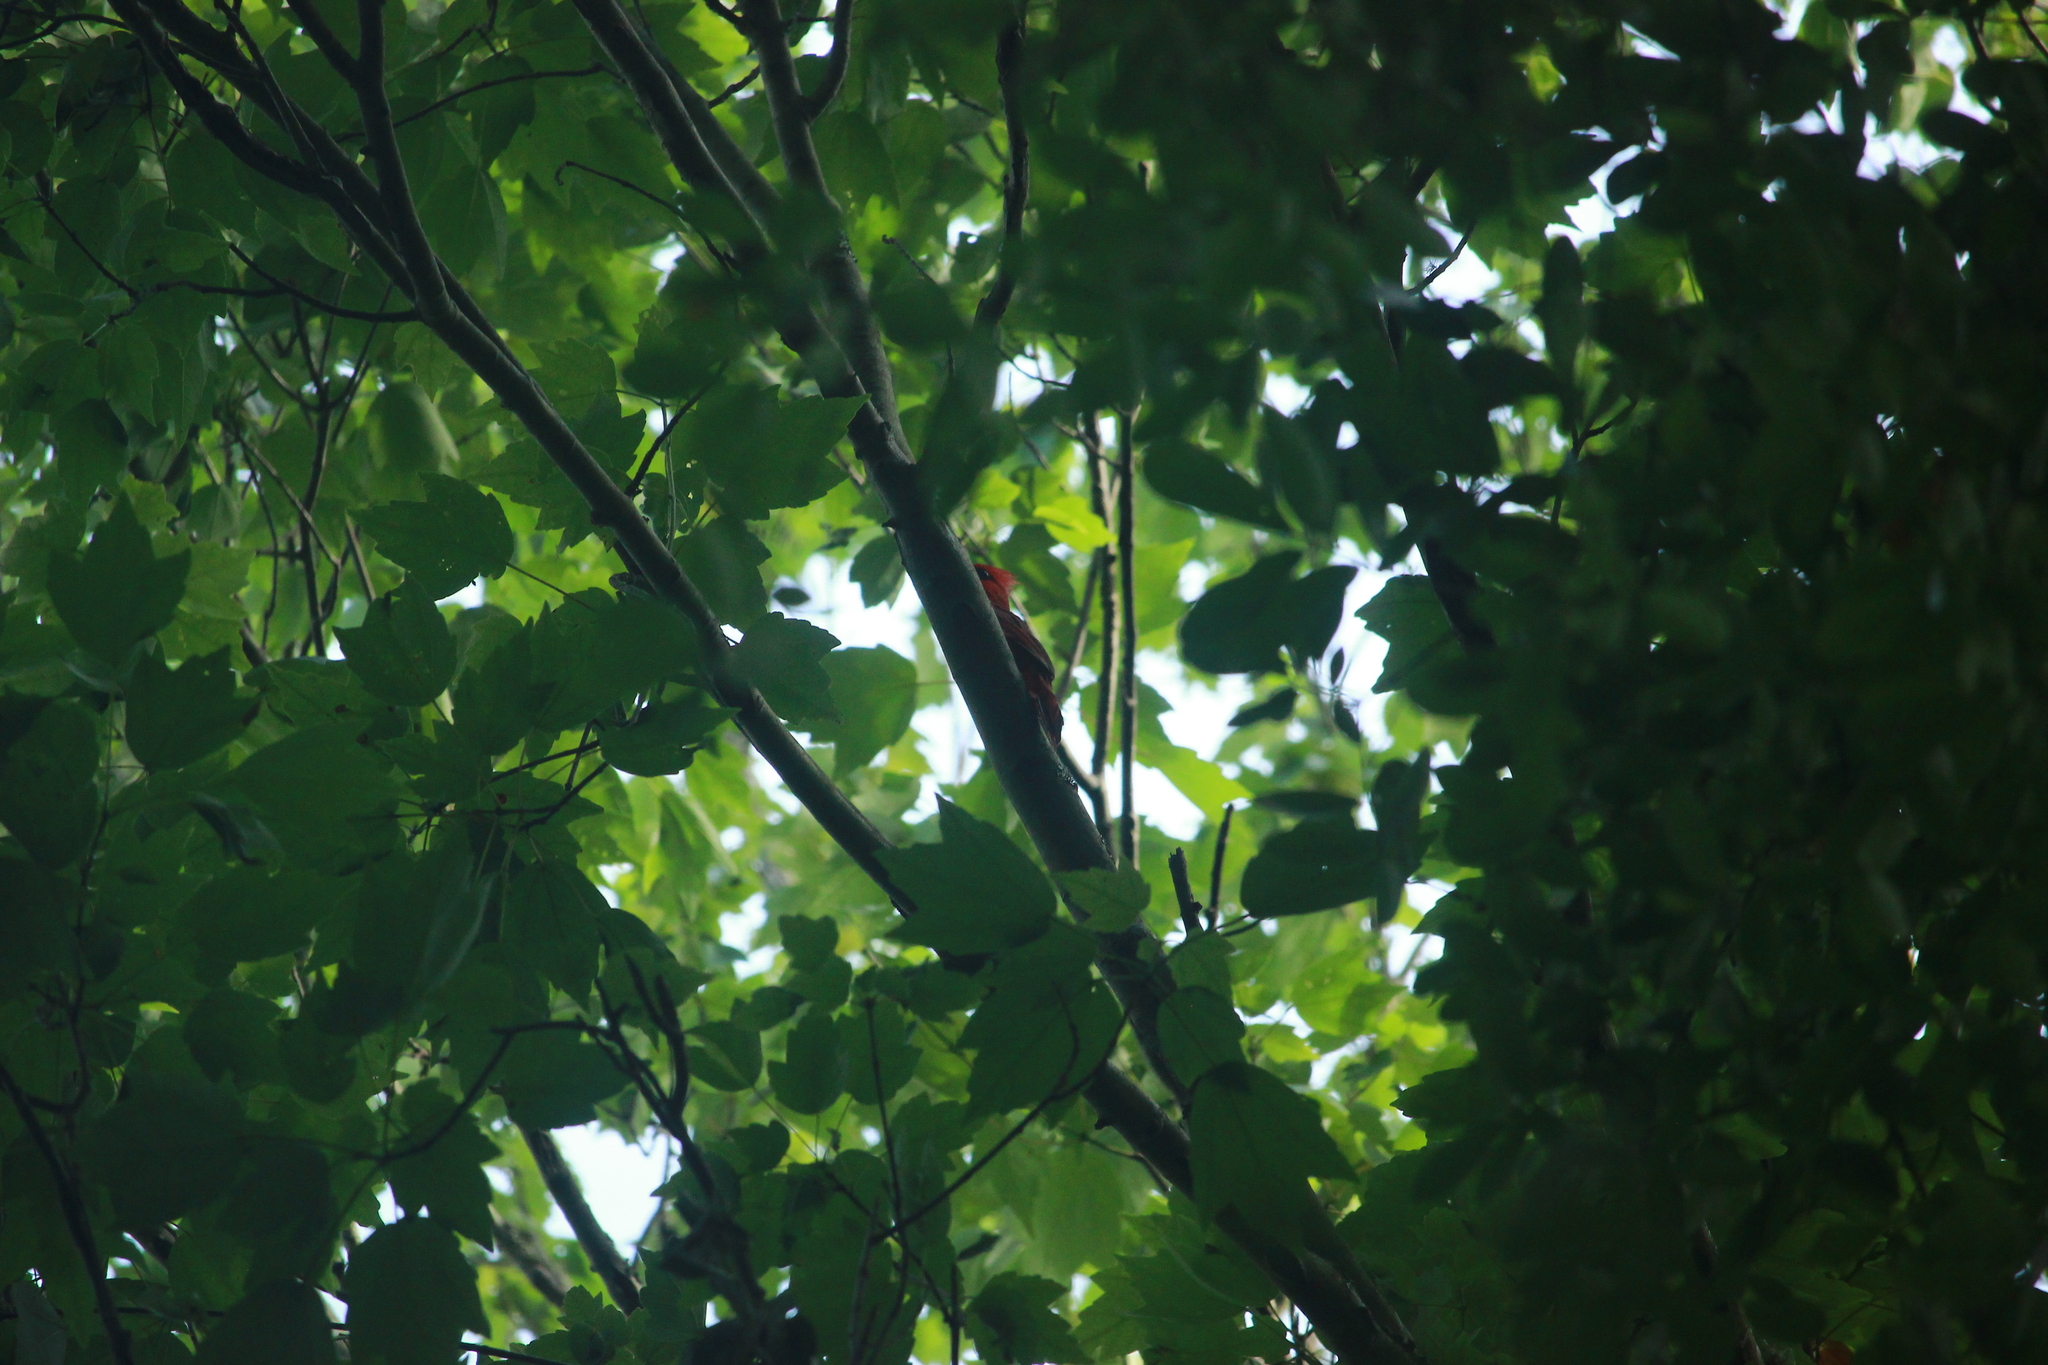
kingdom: Animalia
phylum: Chordata
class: Aves
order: Passeriformes
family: Cardinalidae
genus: Cardinalis
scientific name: Cardinalis cardinalis
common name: Northern cardinal
